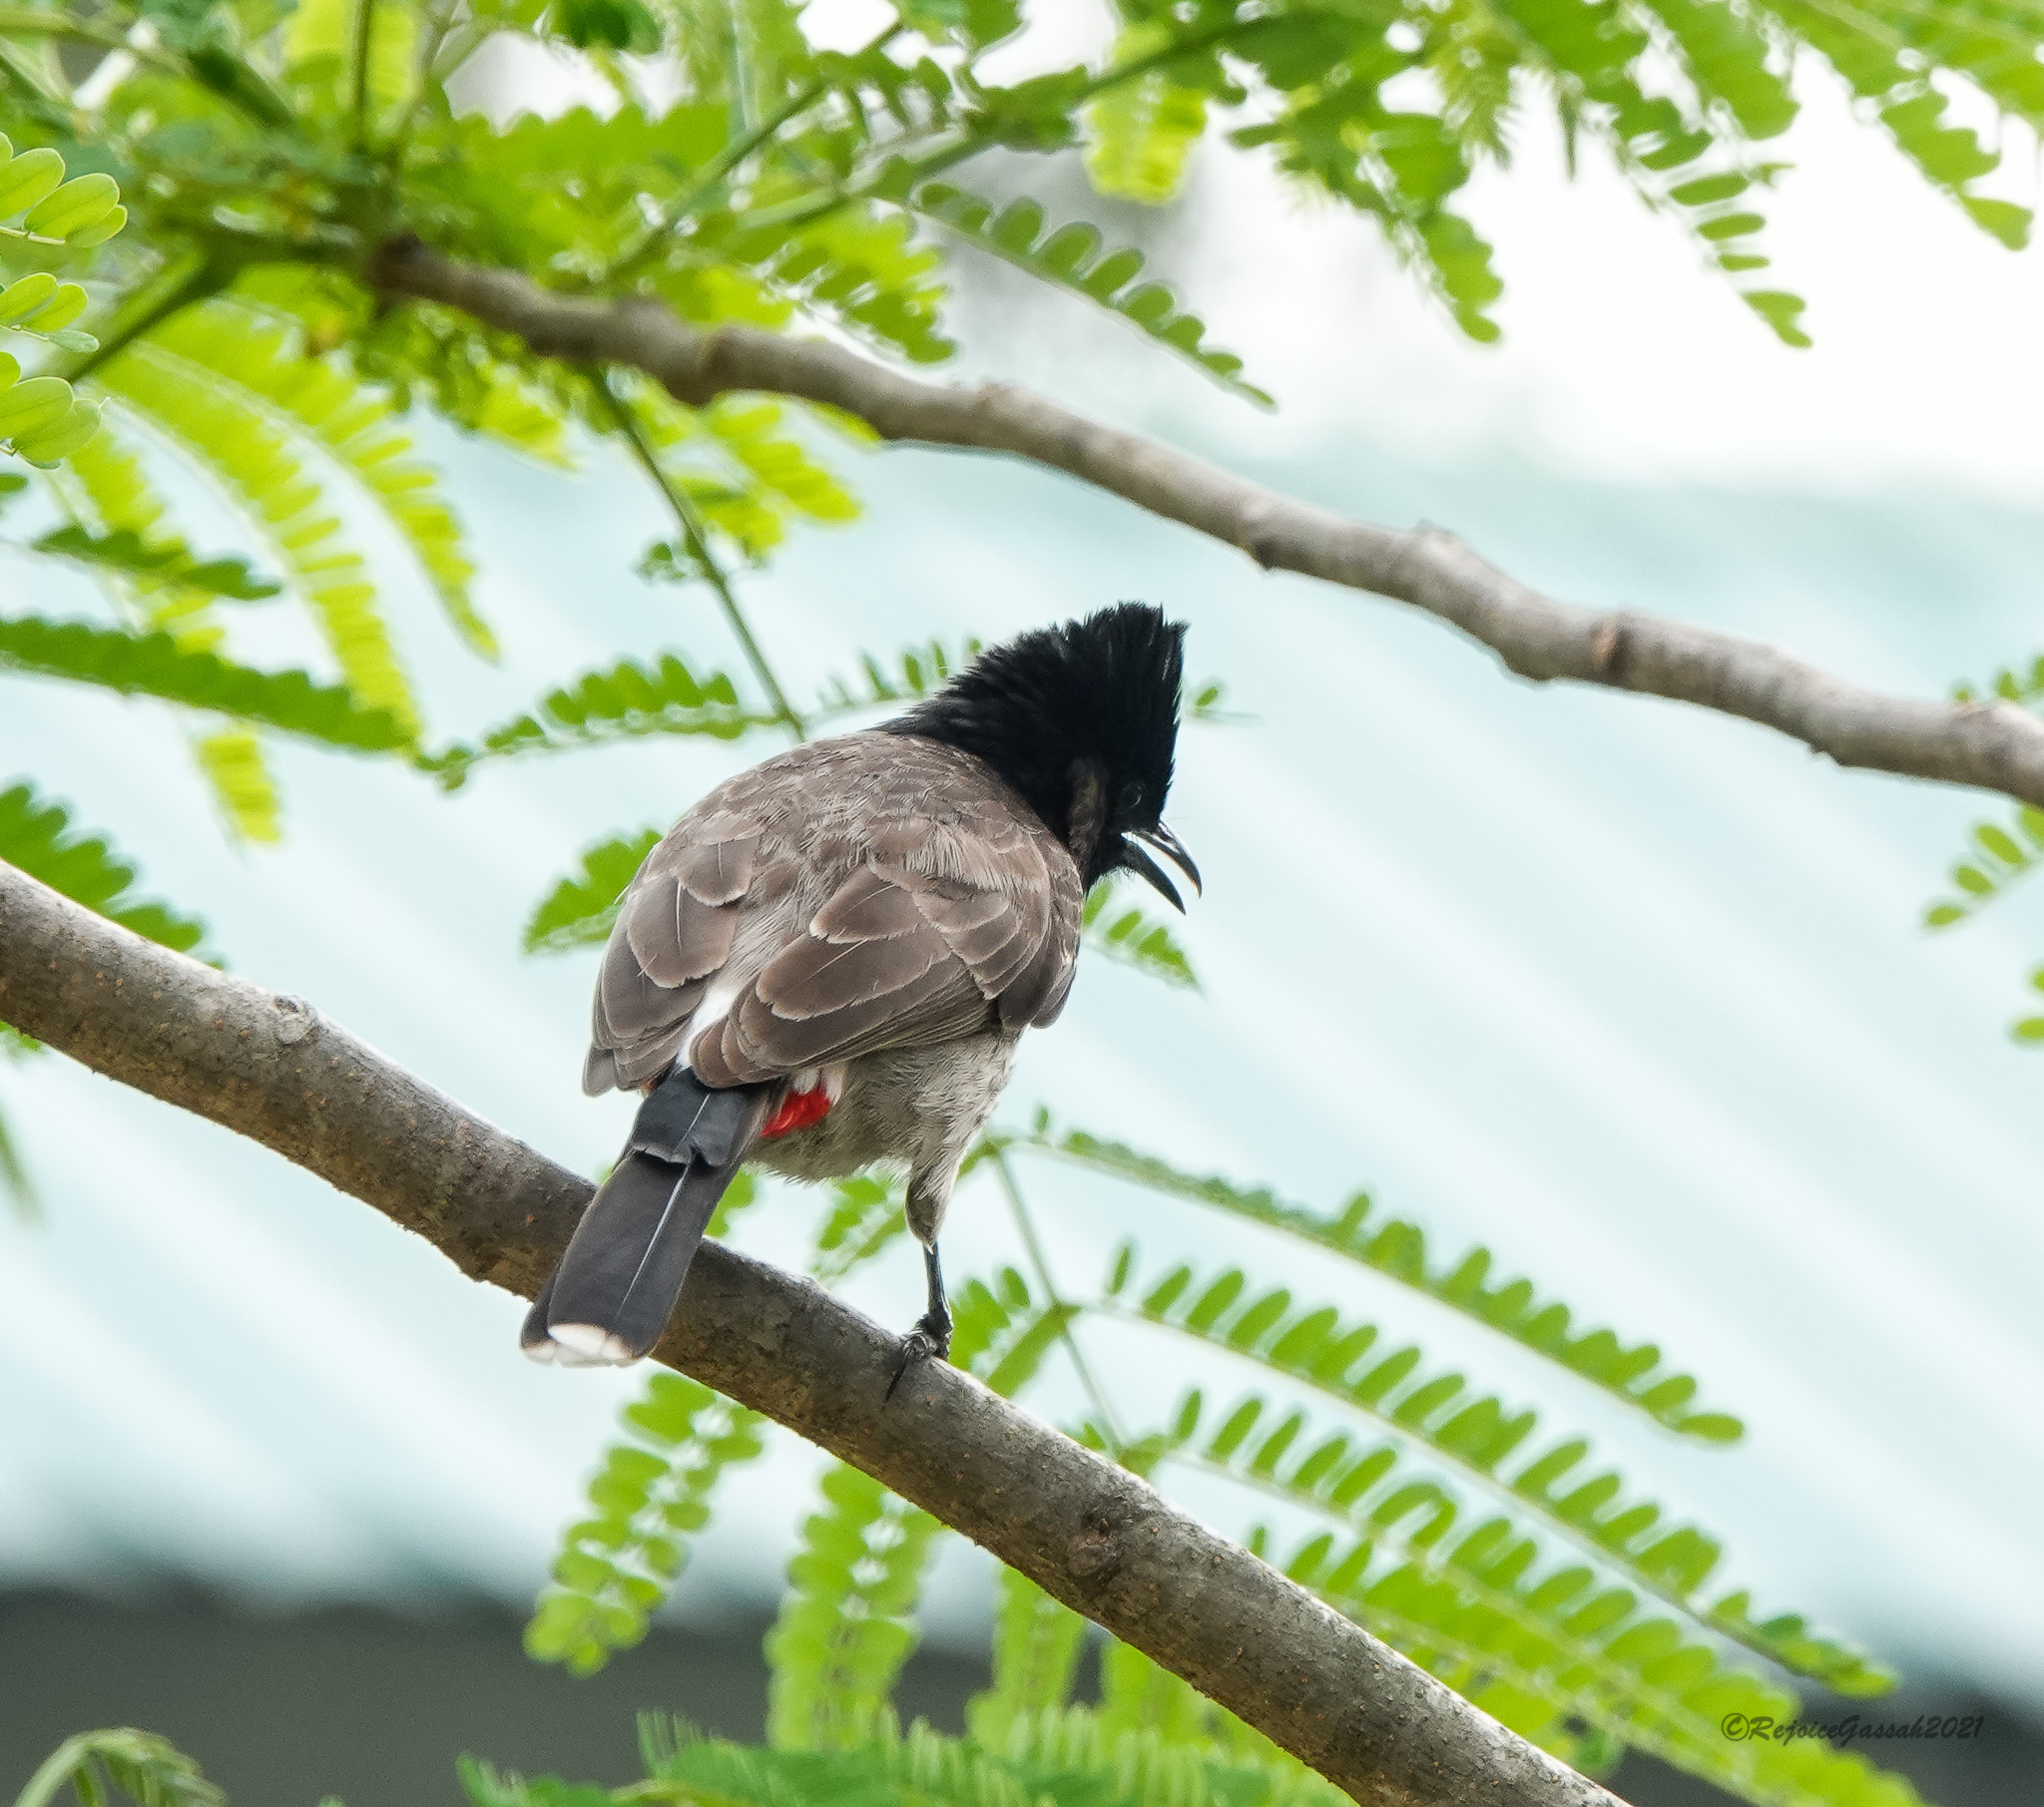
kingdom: Animalia
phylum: Chordata
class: Aves
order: Passeriformes
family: Pycnonotidae
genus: Pycnonotus
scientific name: Pycnonotus cafer
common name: Red-vented bulbul
